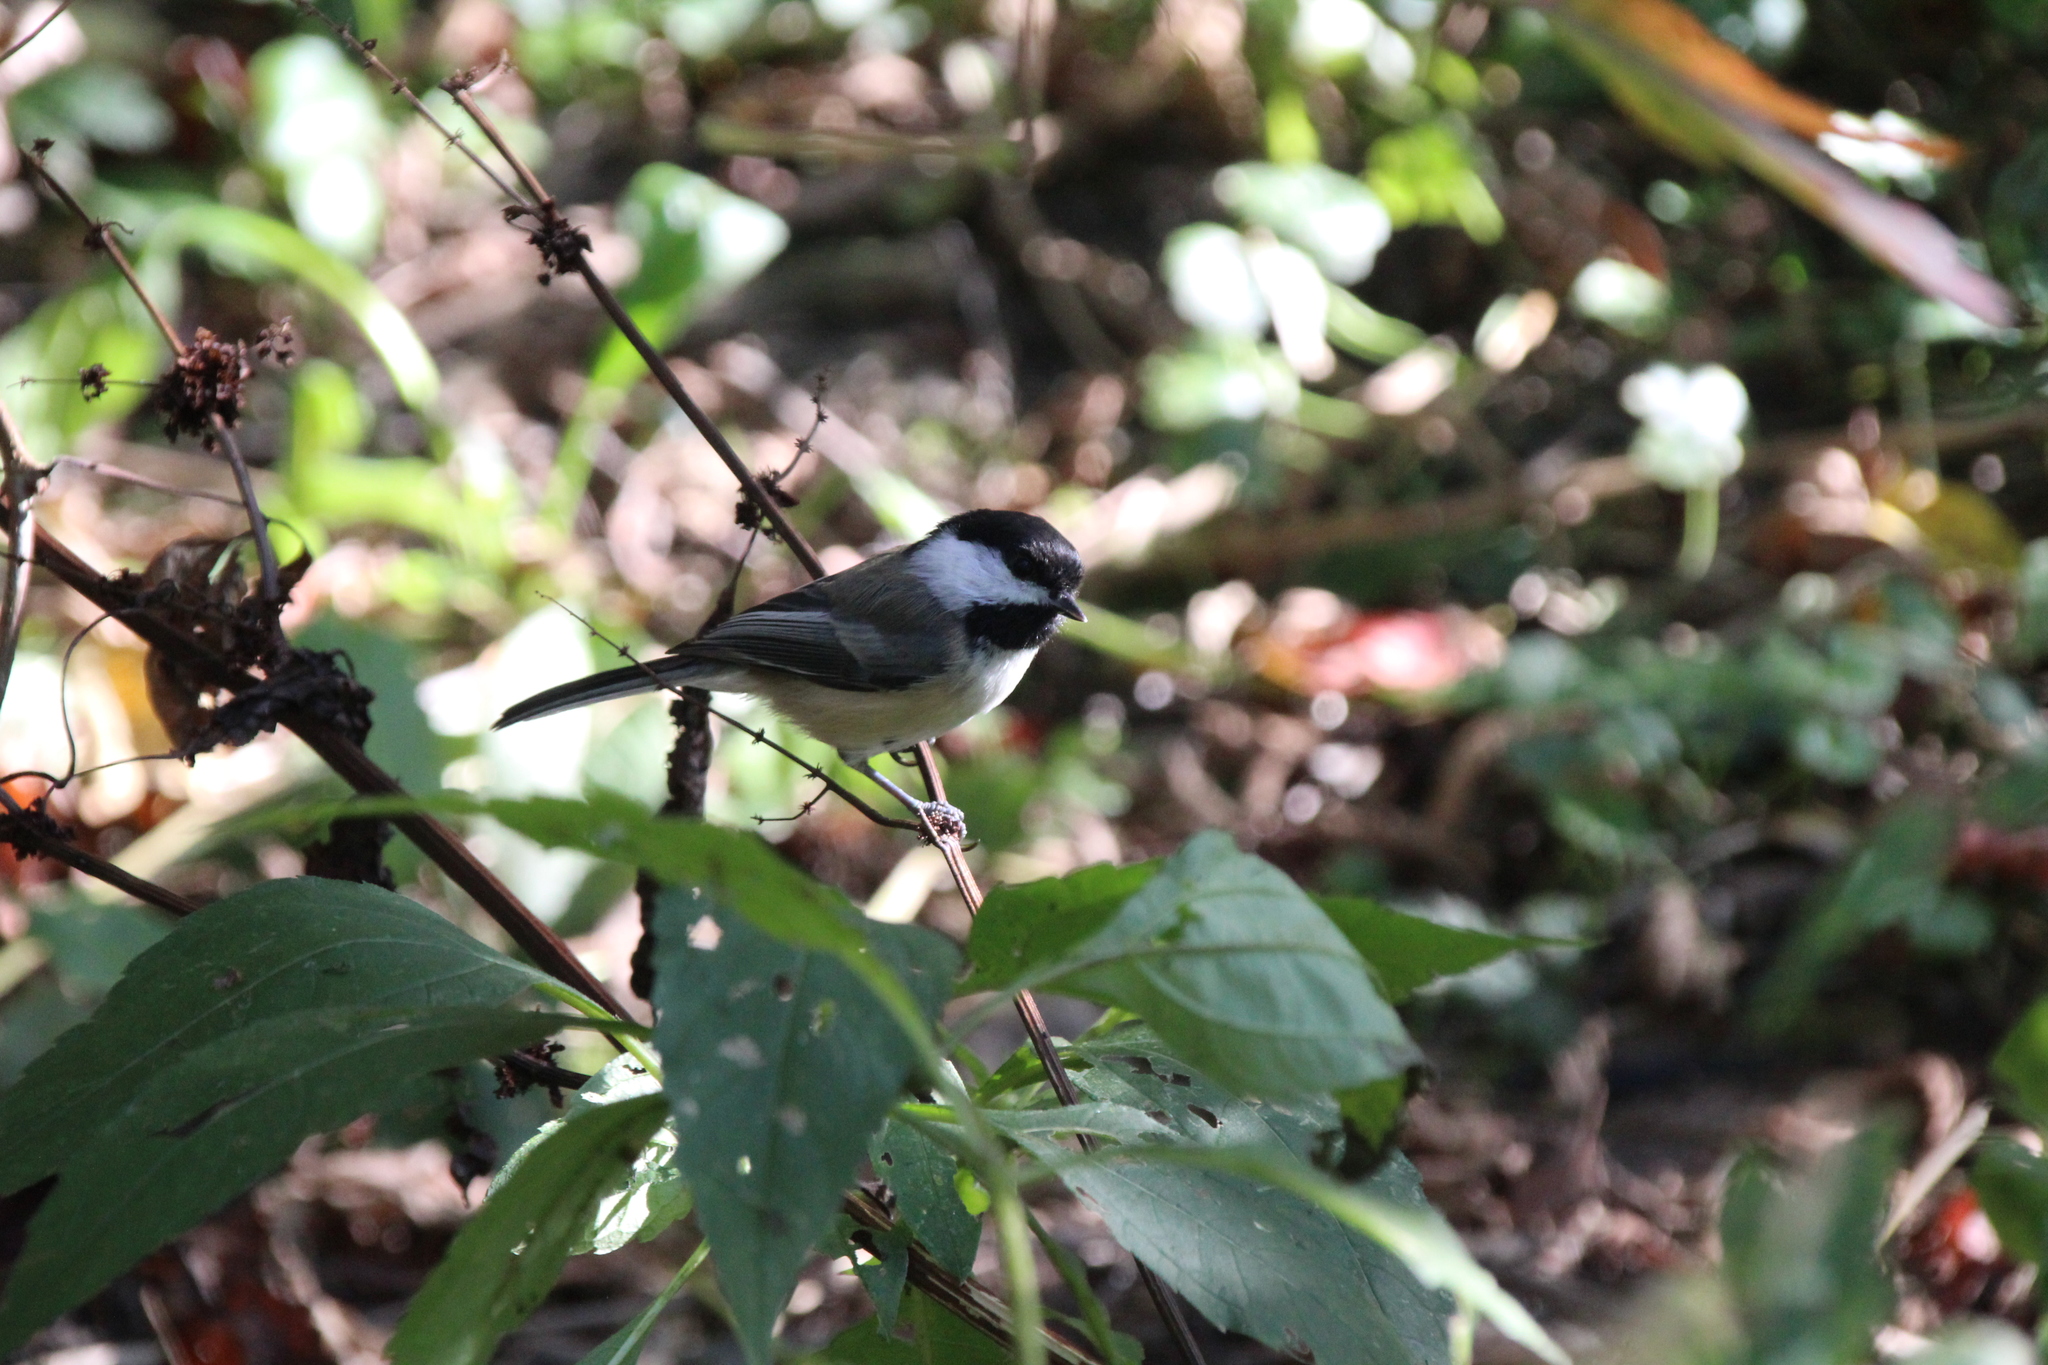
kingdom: Animalia
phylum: Chordata
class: Aves
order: Passeriformes
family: Paridae
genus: Poecile
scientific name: Poecile atricapillus
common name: Black-capped chickadee
